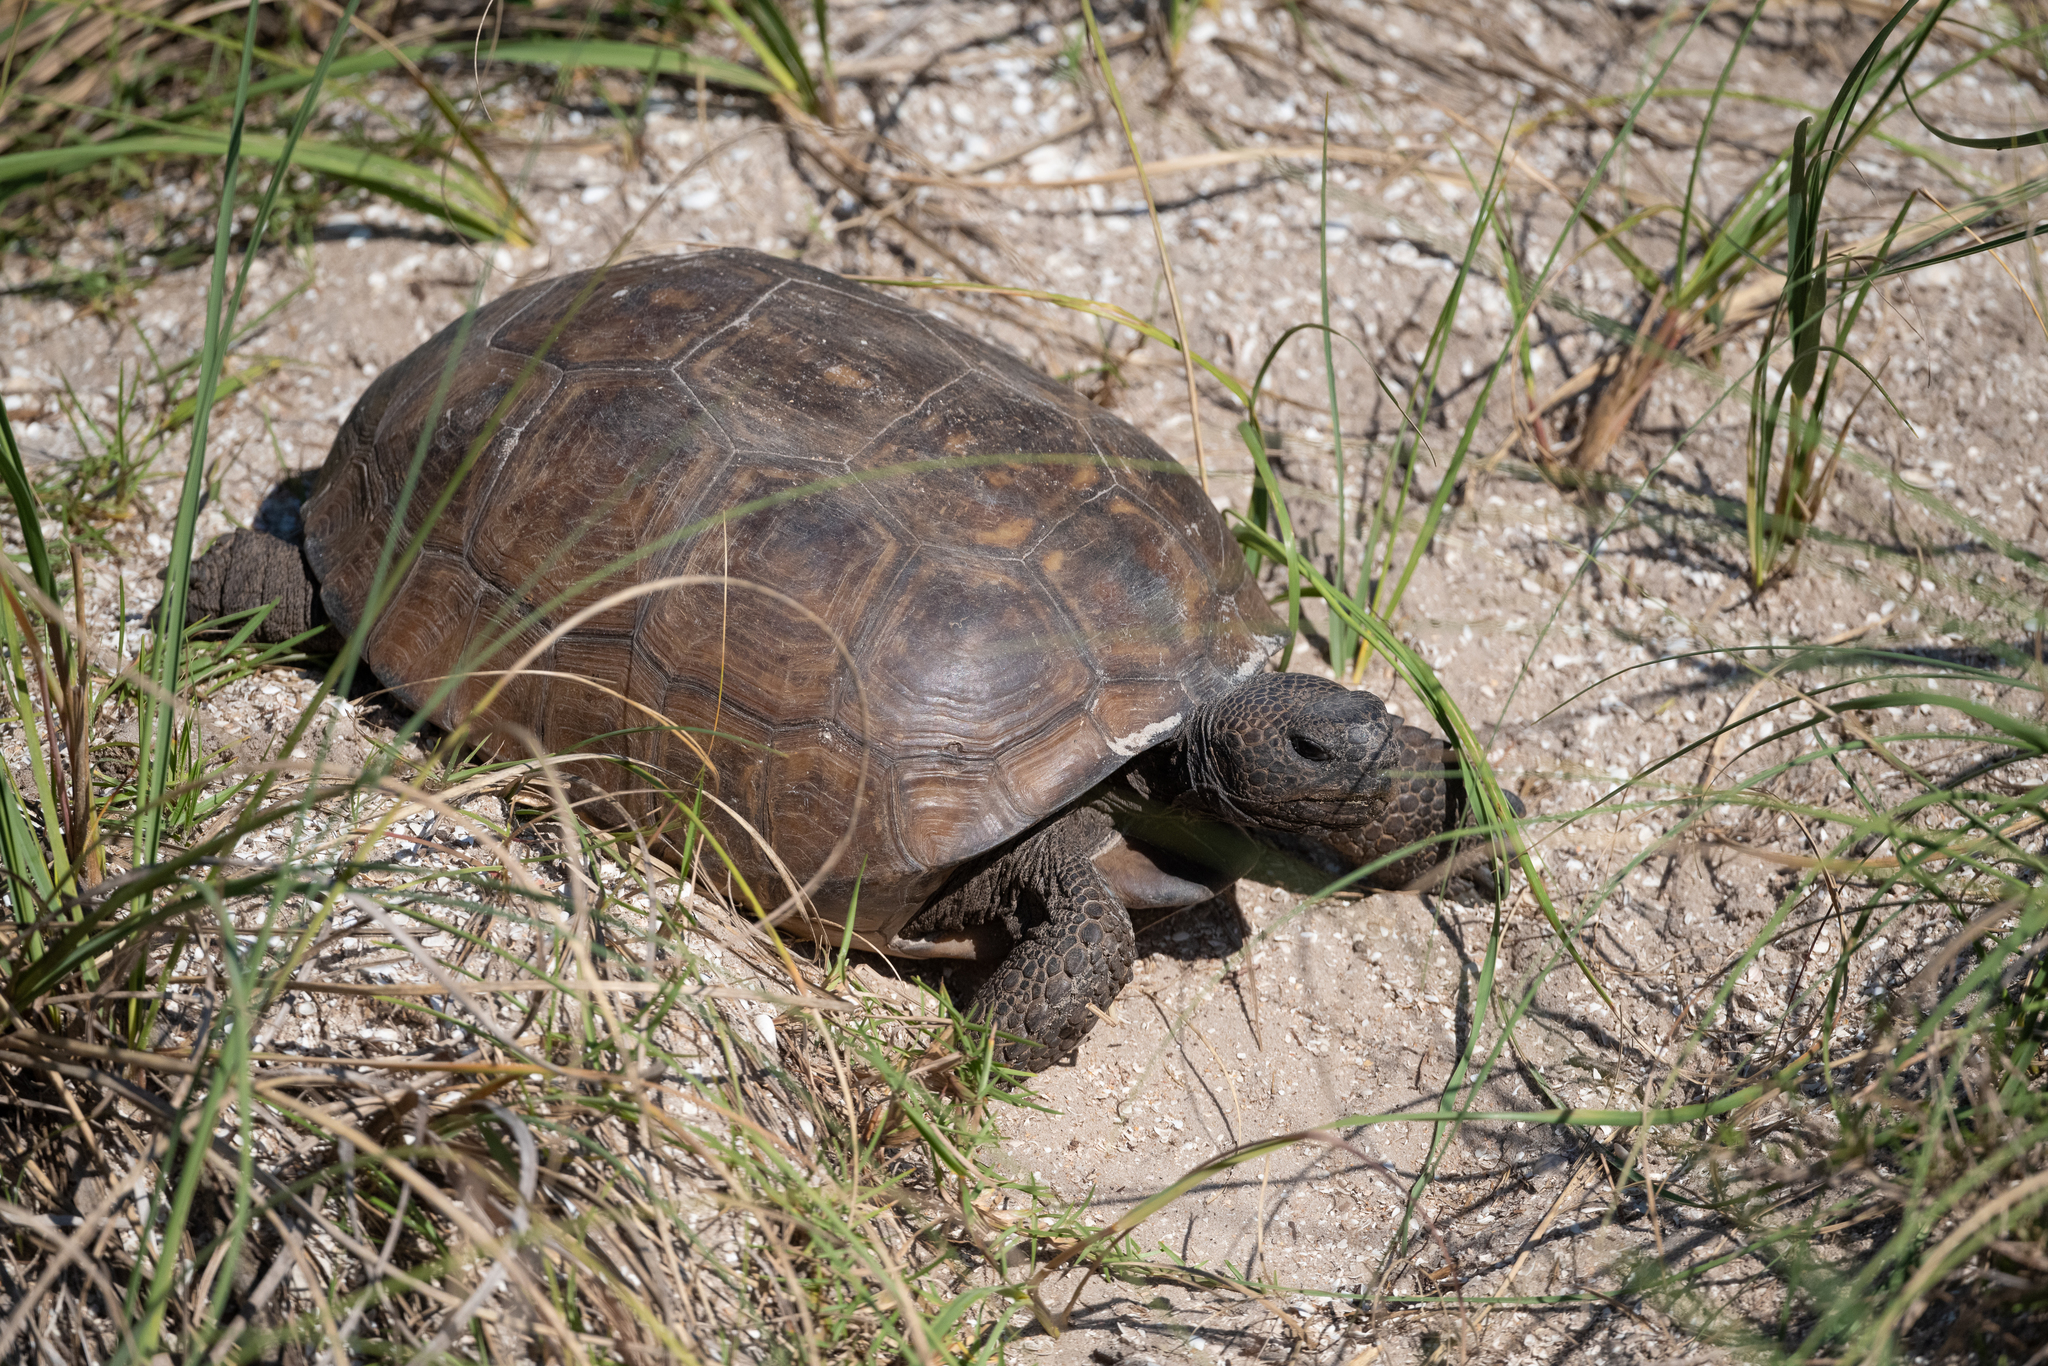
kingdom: Animalia
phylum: Chordata
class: Testudines
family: Testudinidae
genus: Gopherus
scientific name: Gopherus polyphemus
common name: Florida gopher tortoise
